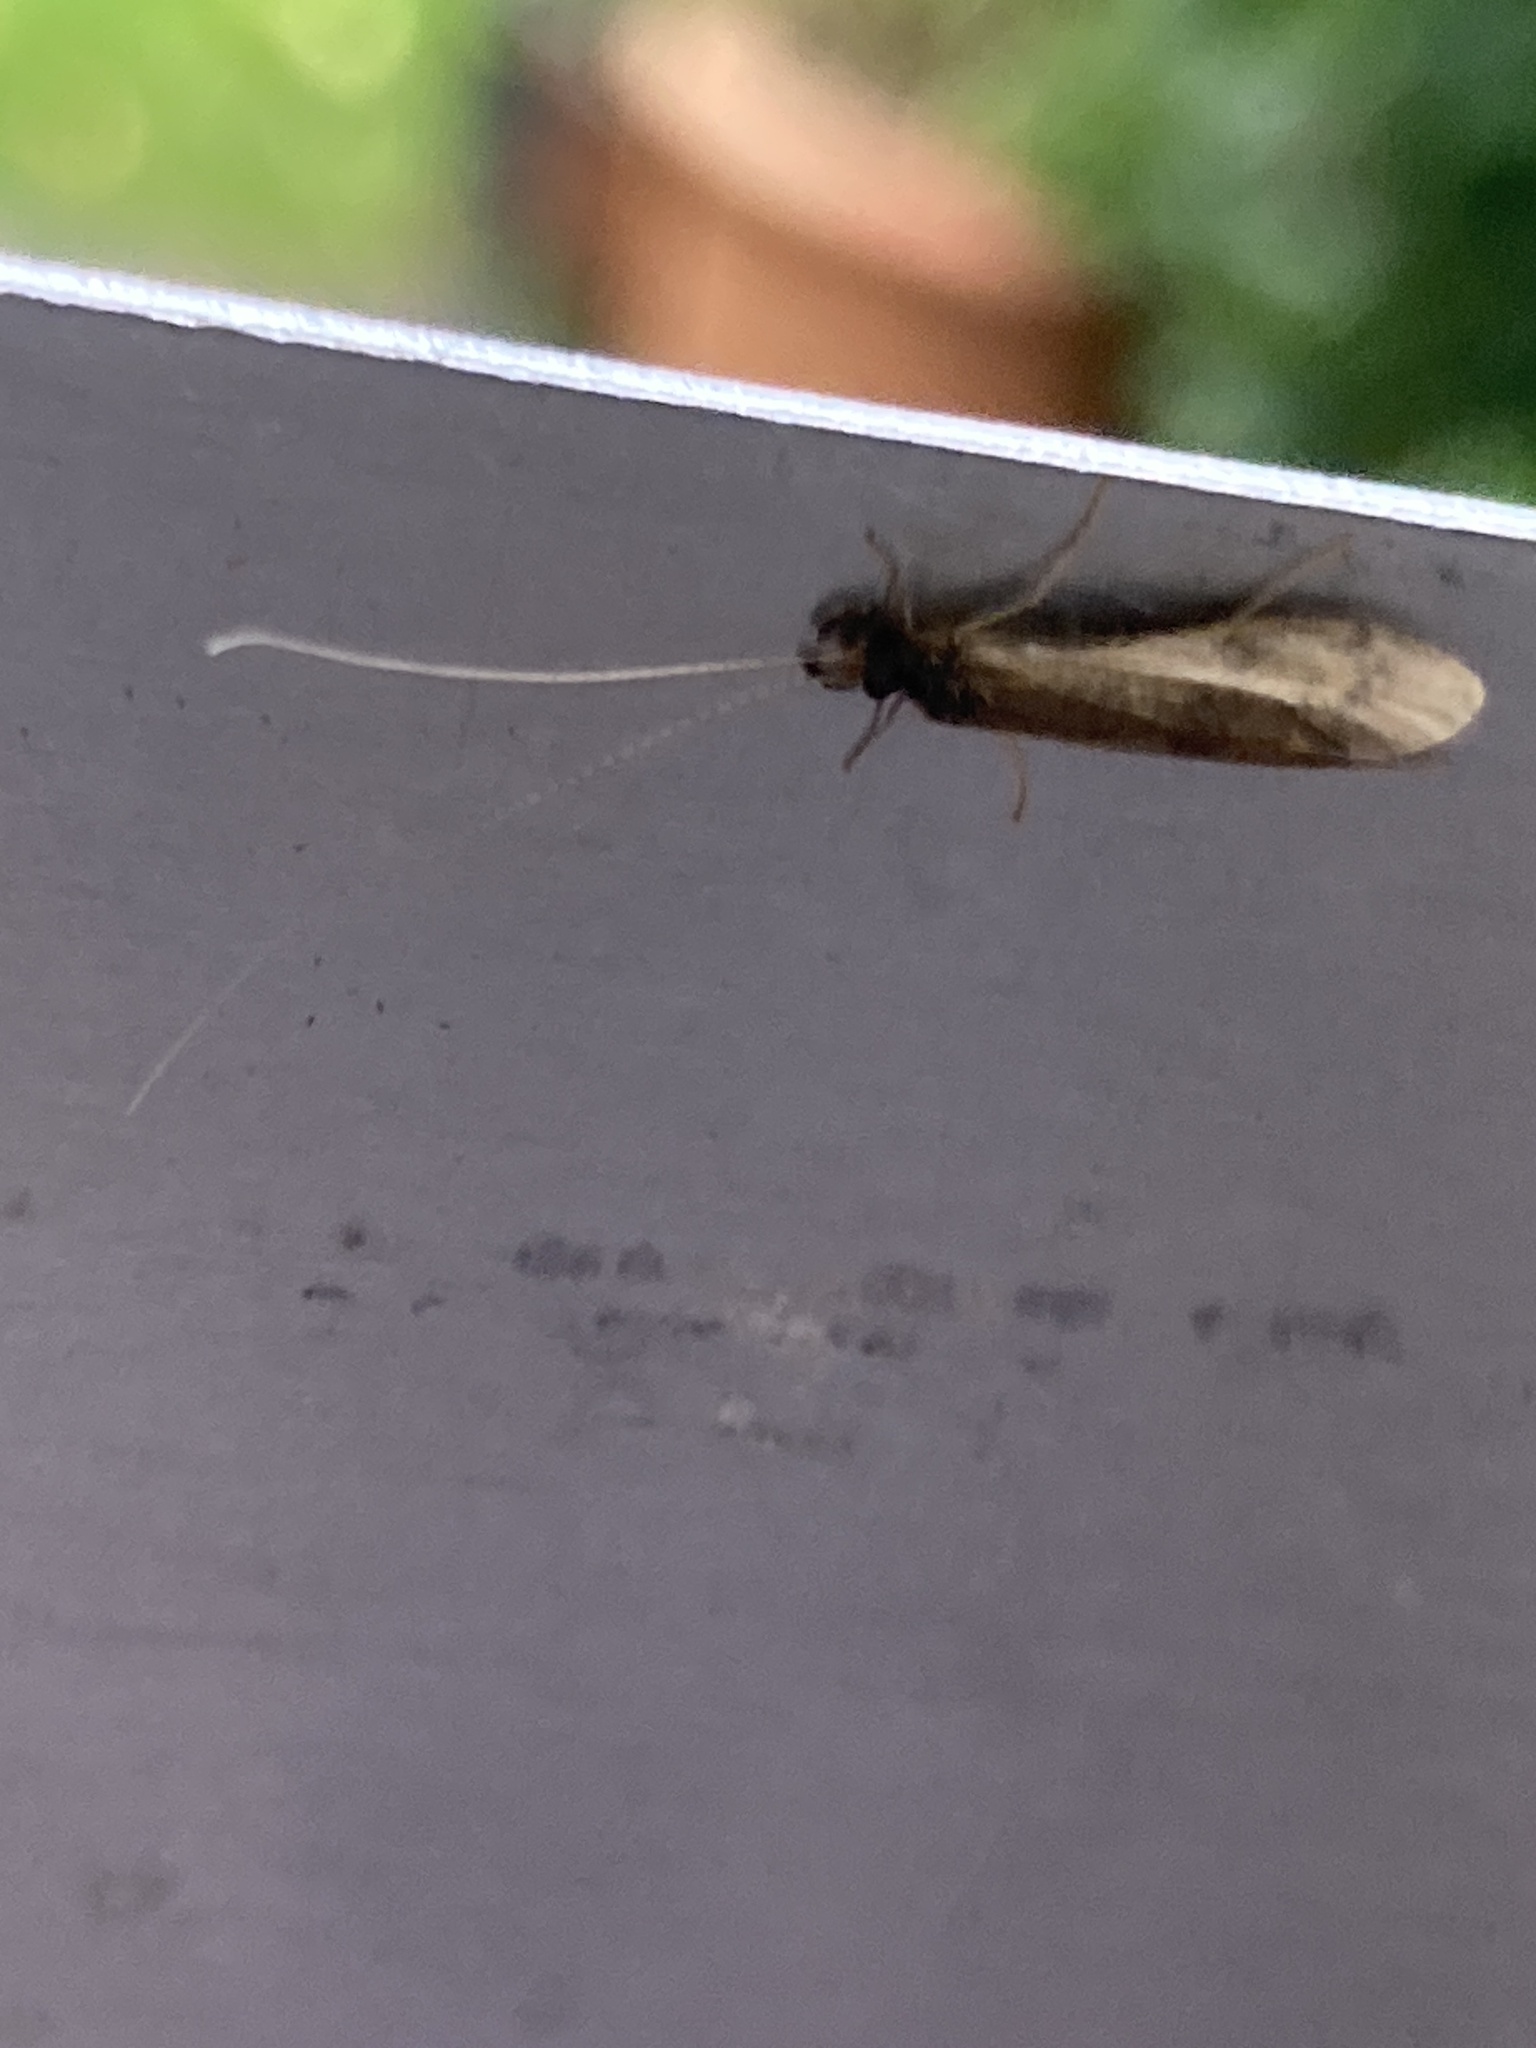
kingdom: Animalia
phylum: Arthropoda
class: Insecta
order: Trichoptera
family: Leptoceridae
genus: Mystacides
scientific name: Mystacides longicornis
